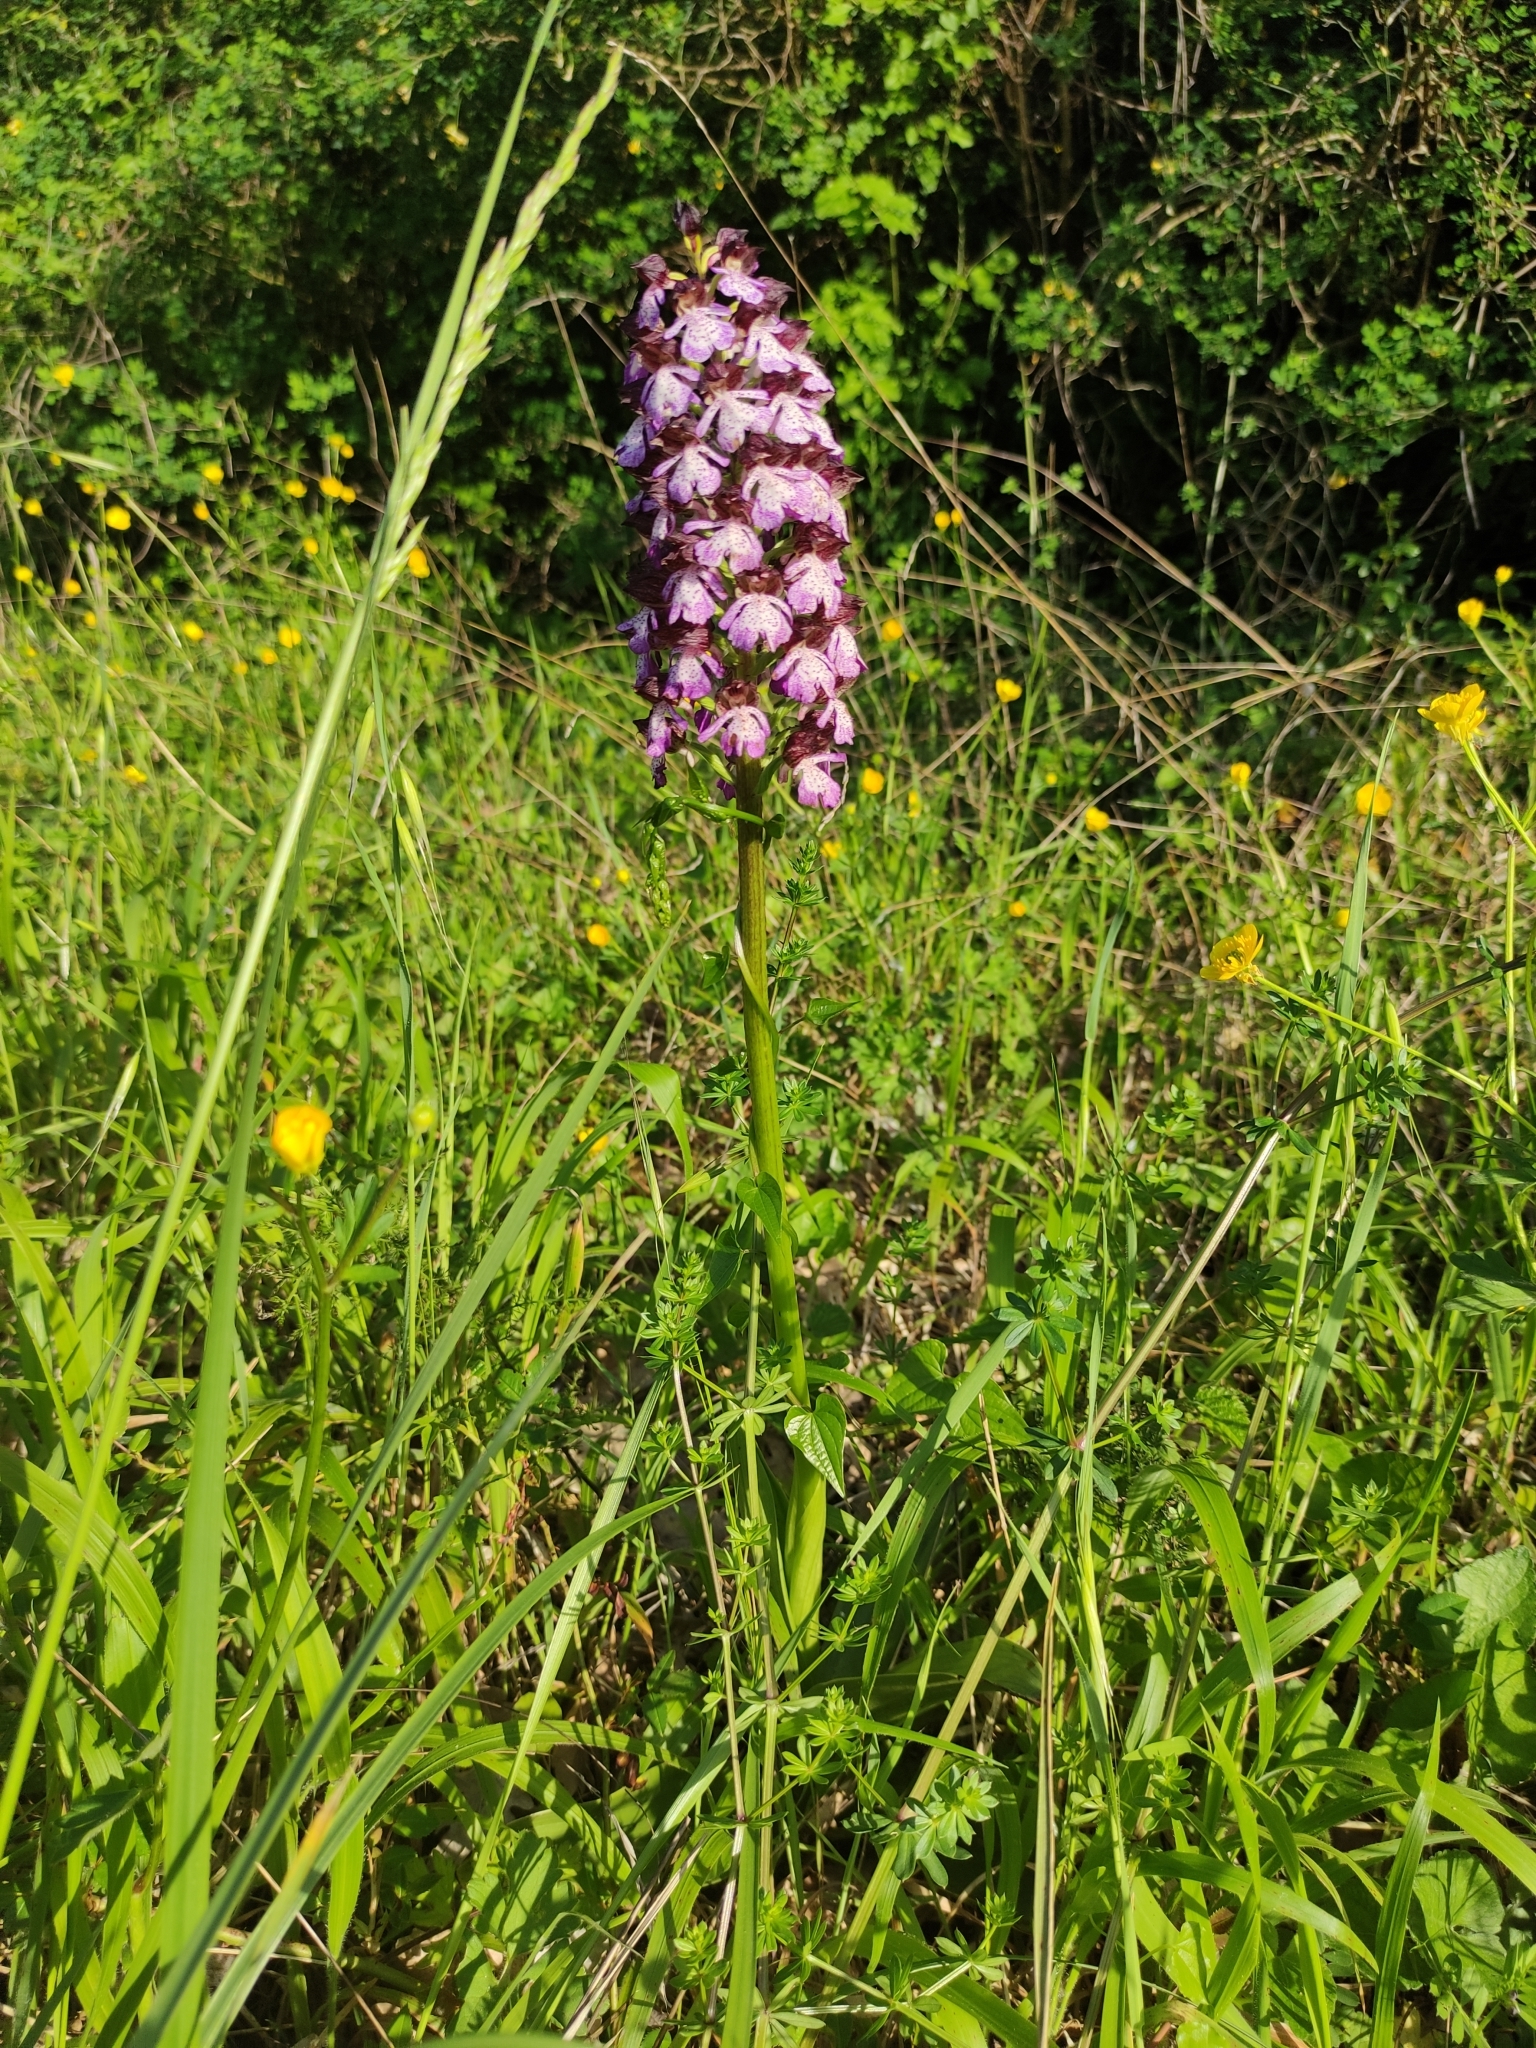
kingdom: Plantae
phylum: Tracheophyta
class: Liliopsida
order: Asparagales
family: Orchidaceae
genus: Orchis
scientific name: Orchis purpurea
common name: Lady orchid
